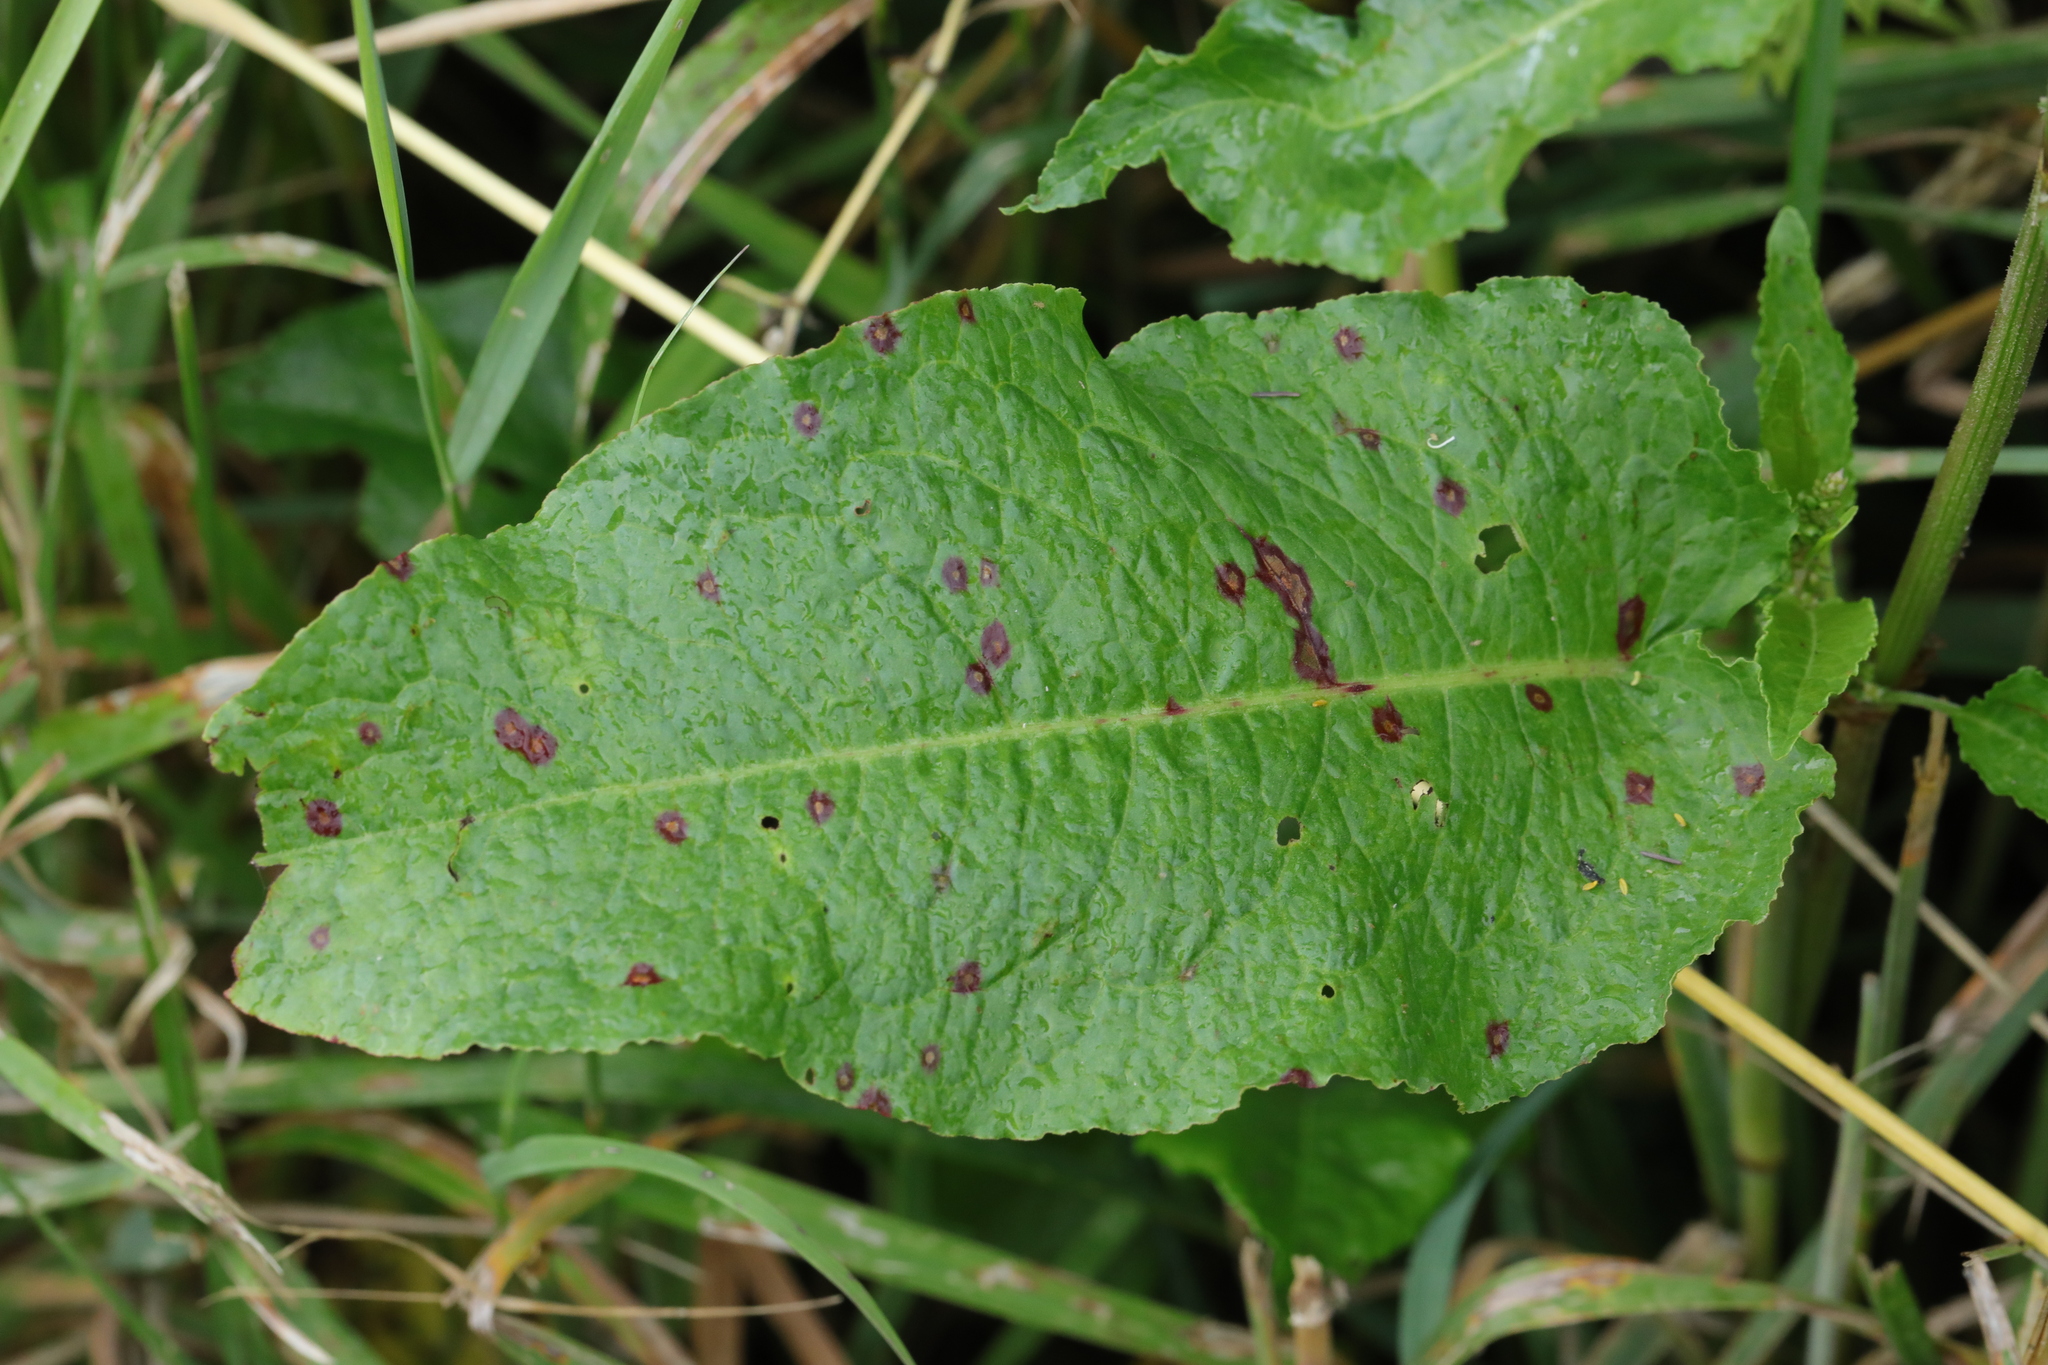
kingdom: Plantae
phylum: Tracheophyta
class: Magnoliopsida
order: Caryophyllales
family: Polygonaceae
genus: Rumex
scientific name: Rumex obtusifolius
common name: Bitter dock
